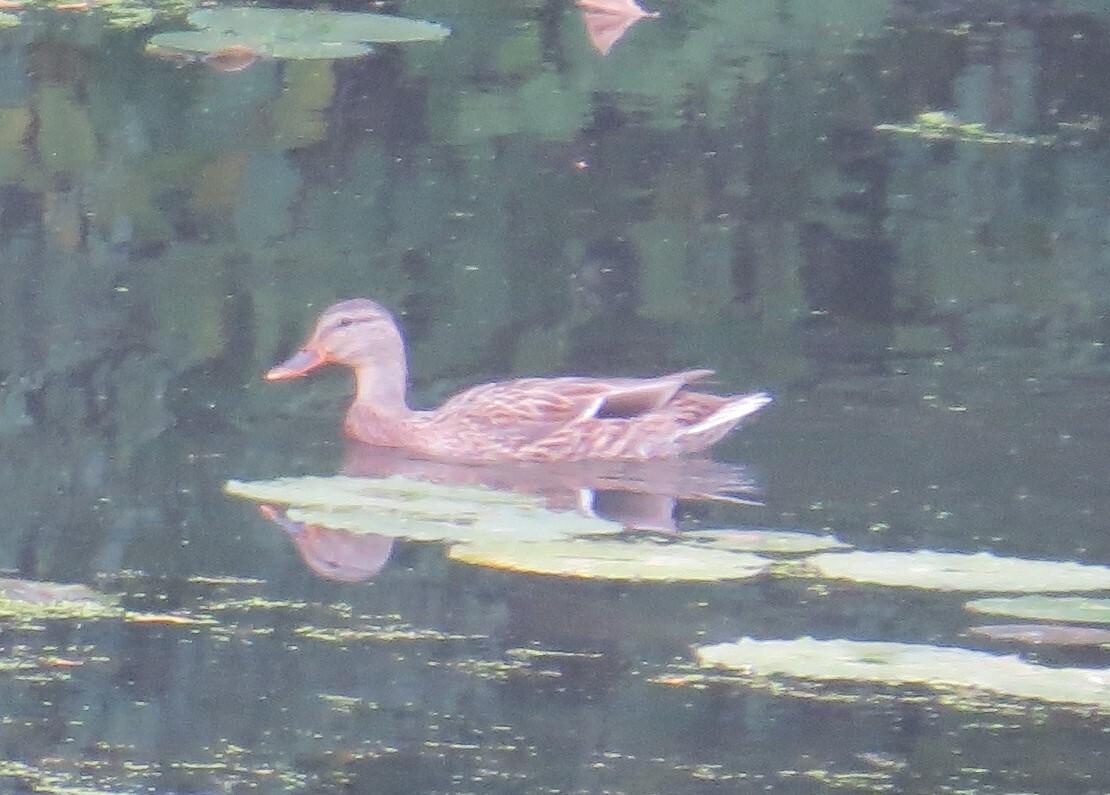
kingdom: Animalia
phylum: Chordata
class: Aves
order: Anseriformes
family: Anatidae
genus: Anas
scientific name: Anas platyrhynchos
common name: Mallard
